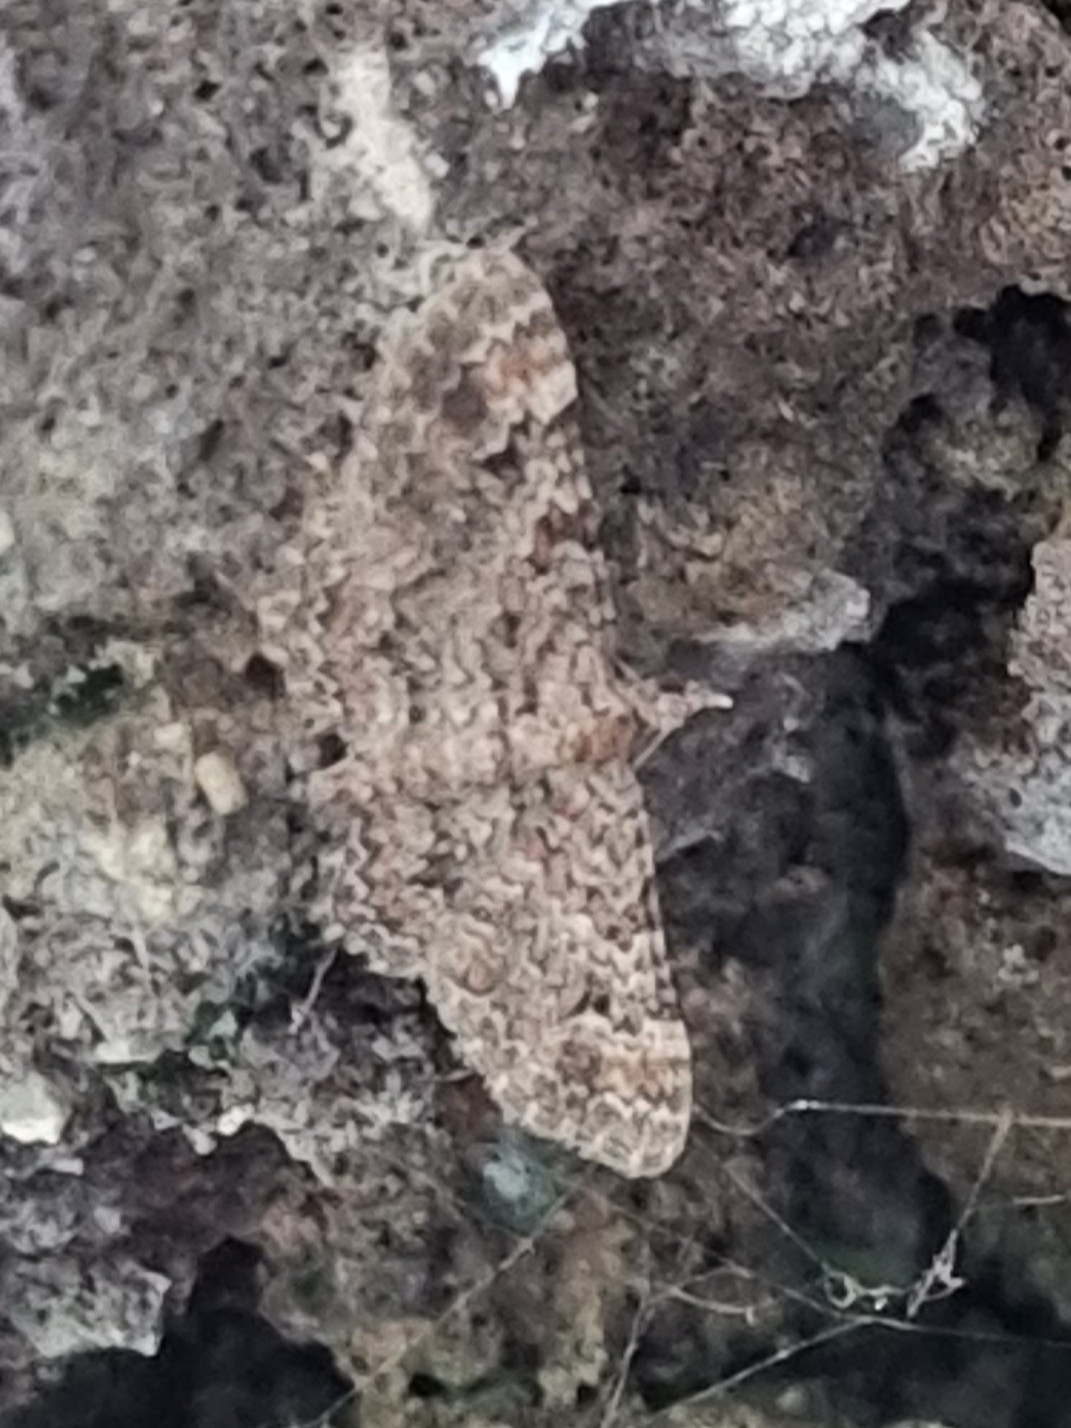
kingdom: Animalia
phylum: Arthropoda
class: Insecta
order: Lepidoptera
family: Geometridae
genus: Gymnoscelis
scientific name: Gymnoscelis rufifasciata
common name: Double-striped pug
